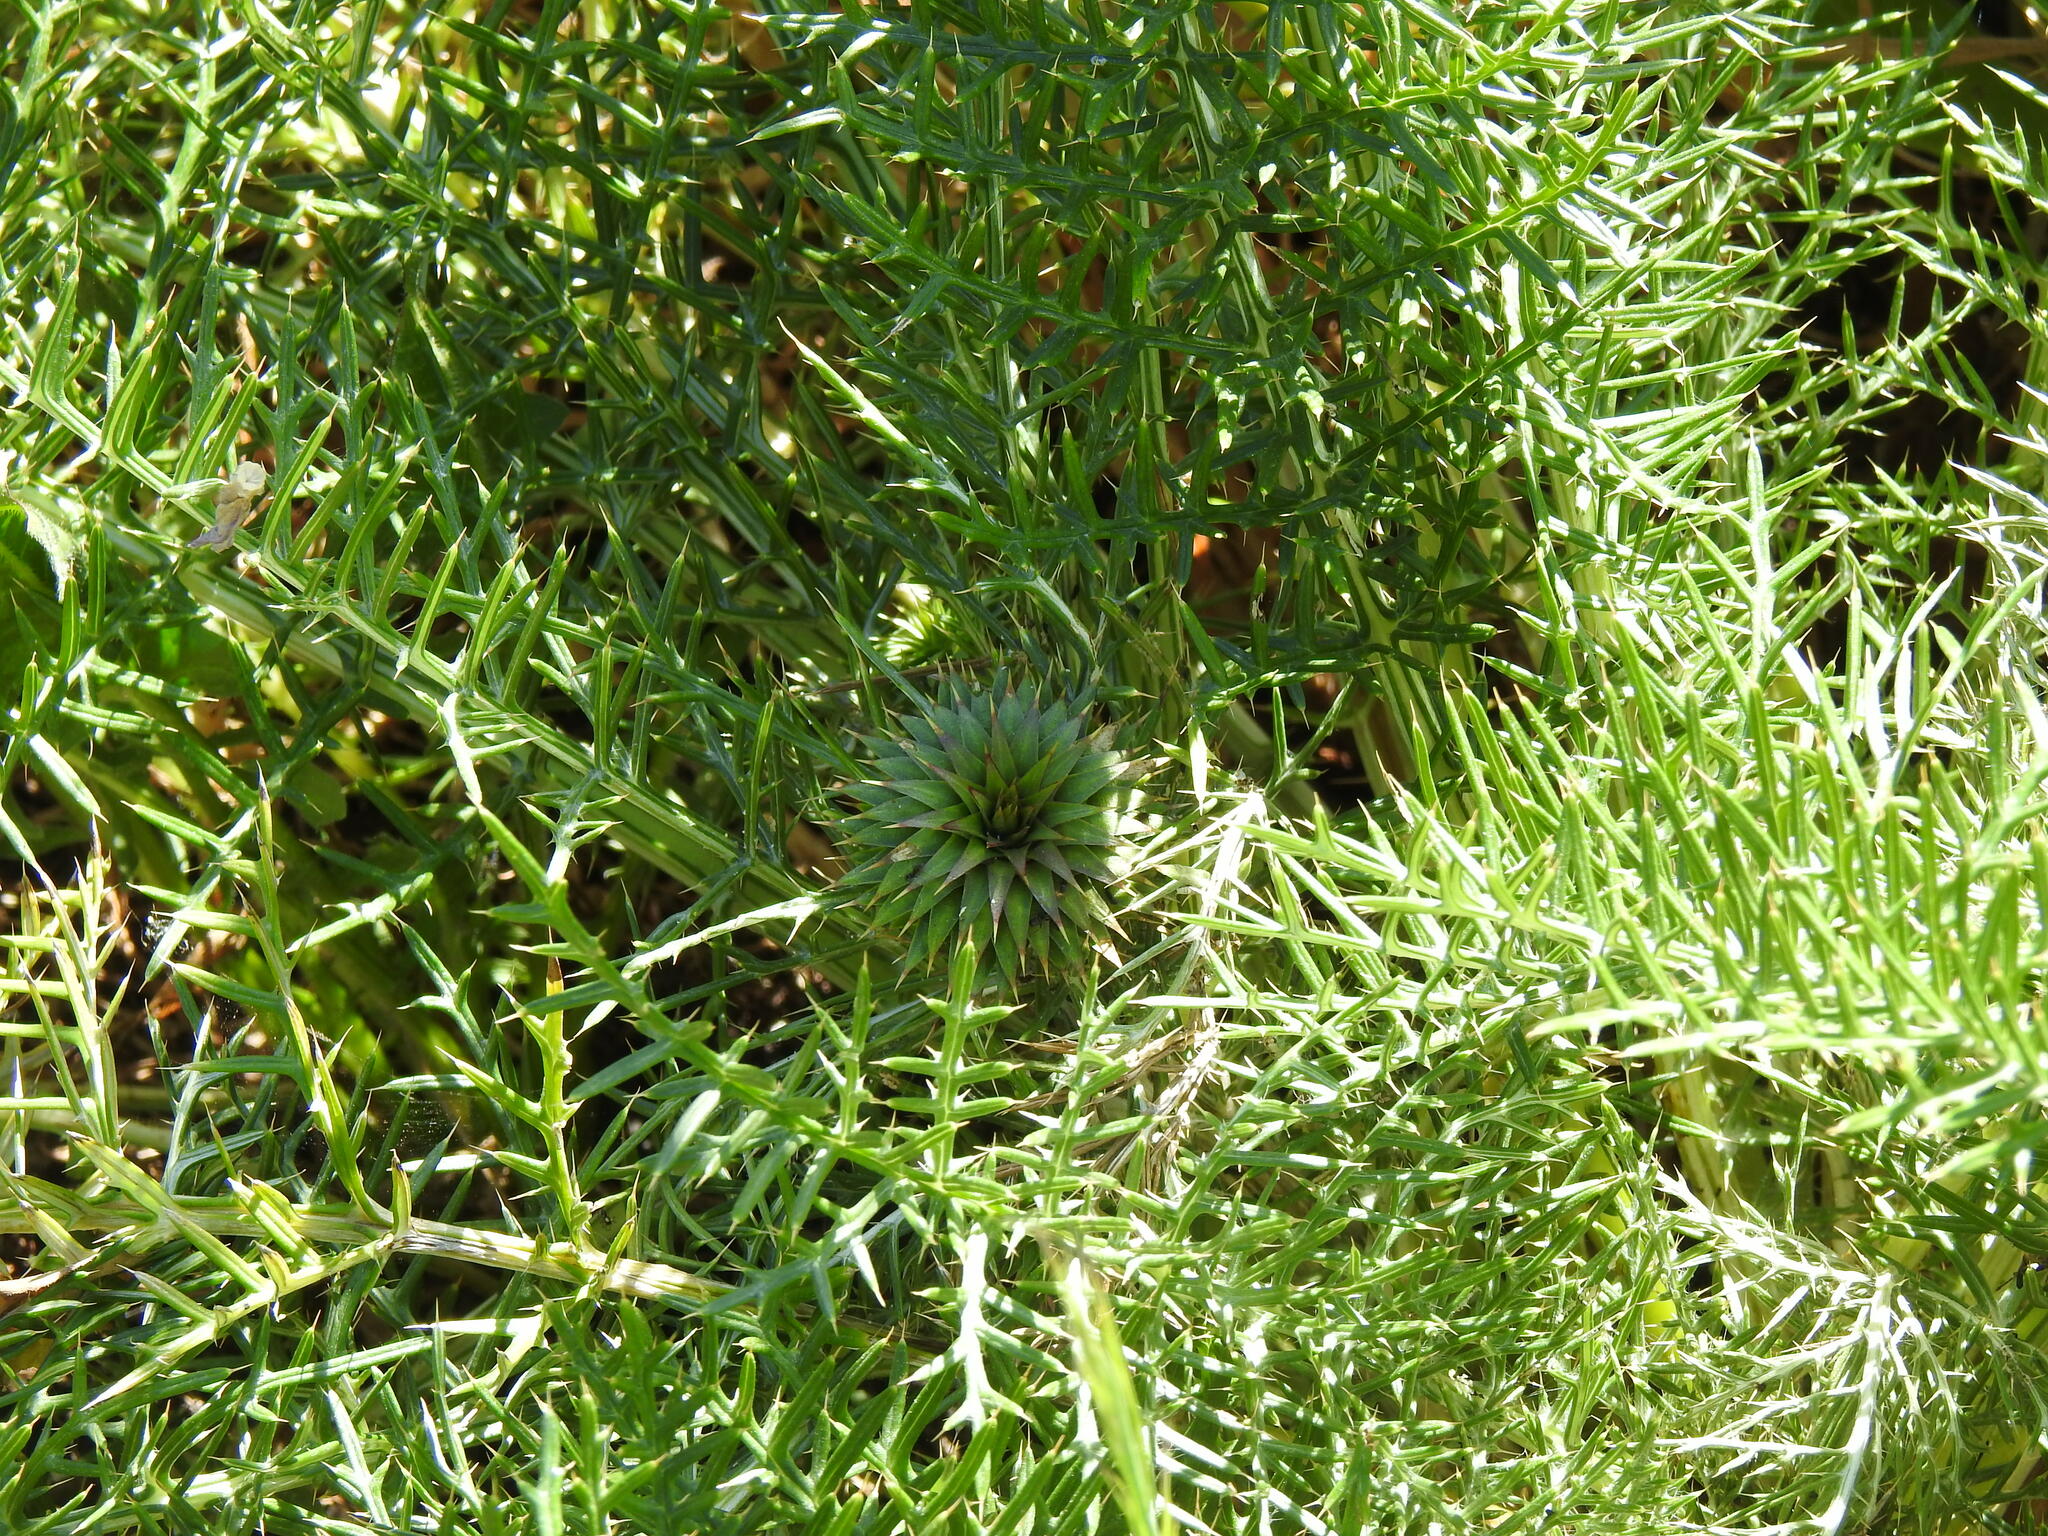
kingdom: Plantae
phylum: Tracheophyta
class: Magnoliopsida
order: Asterales
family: Asteraceae
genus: Cynara
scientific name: Cynara humilis
